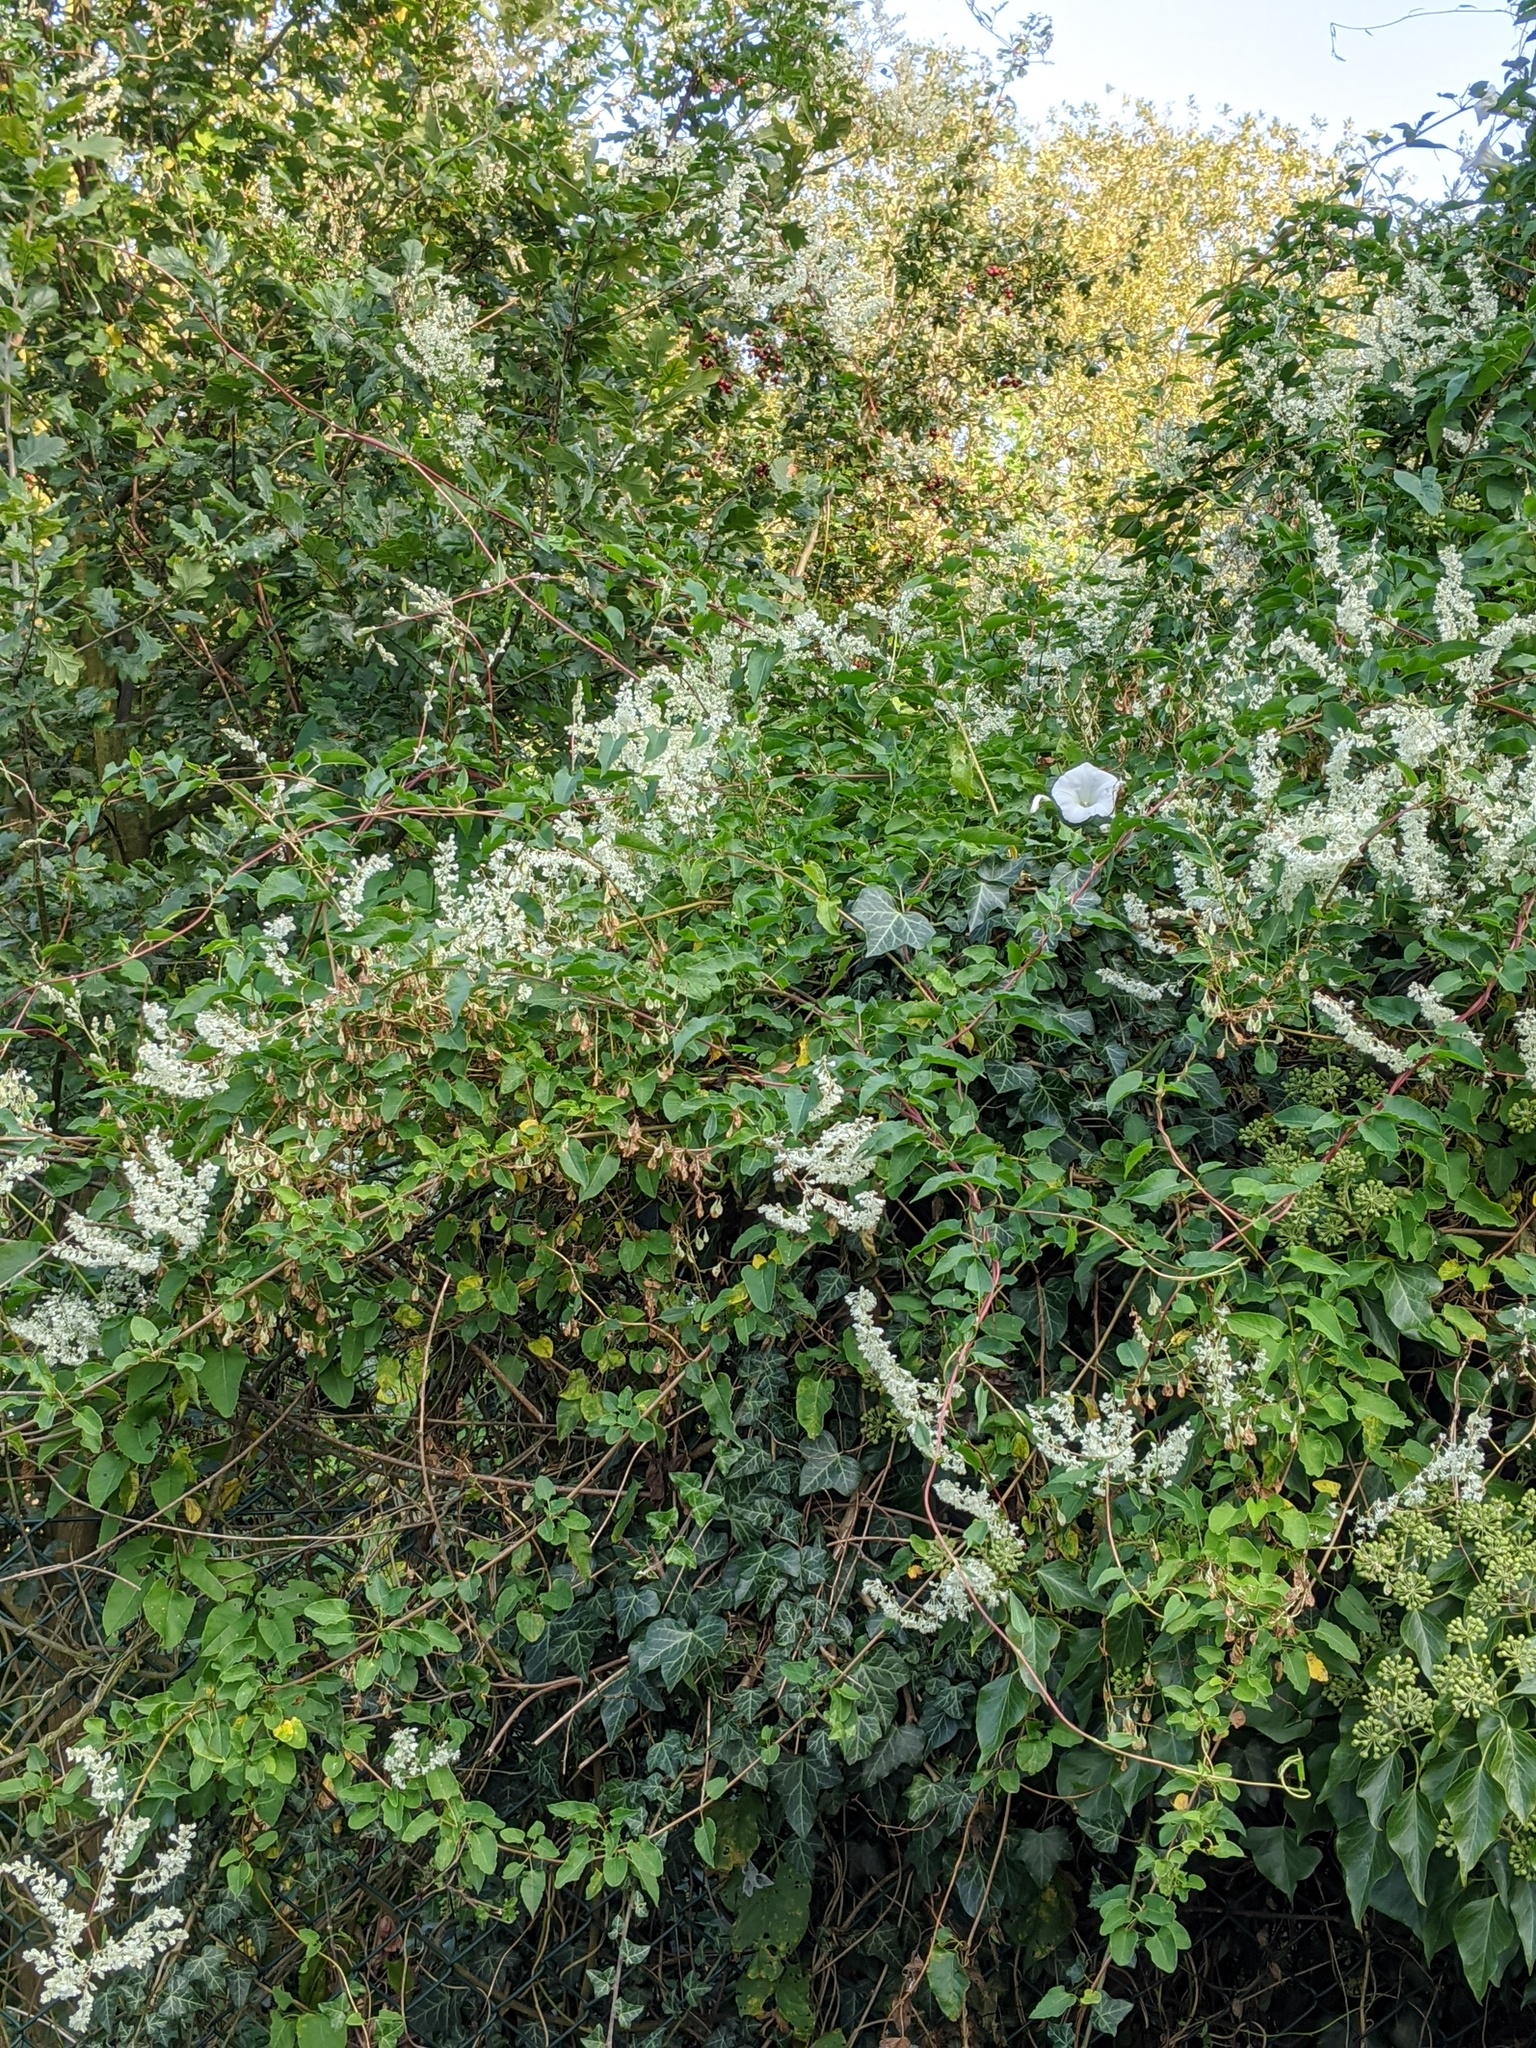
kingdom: Plantae
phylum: Tracheophyta
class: Magnoliopsida
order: Caryophyllales
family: Polygonaceae
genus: Fallopia
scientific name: Fallopia baldschuanica
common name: Russian-vine
